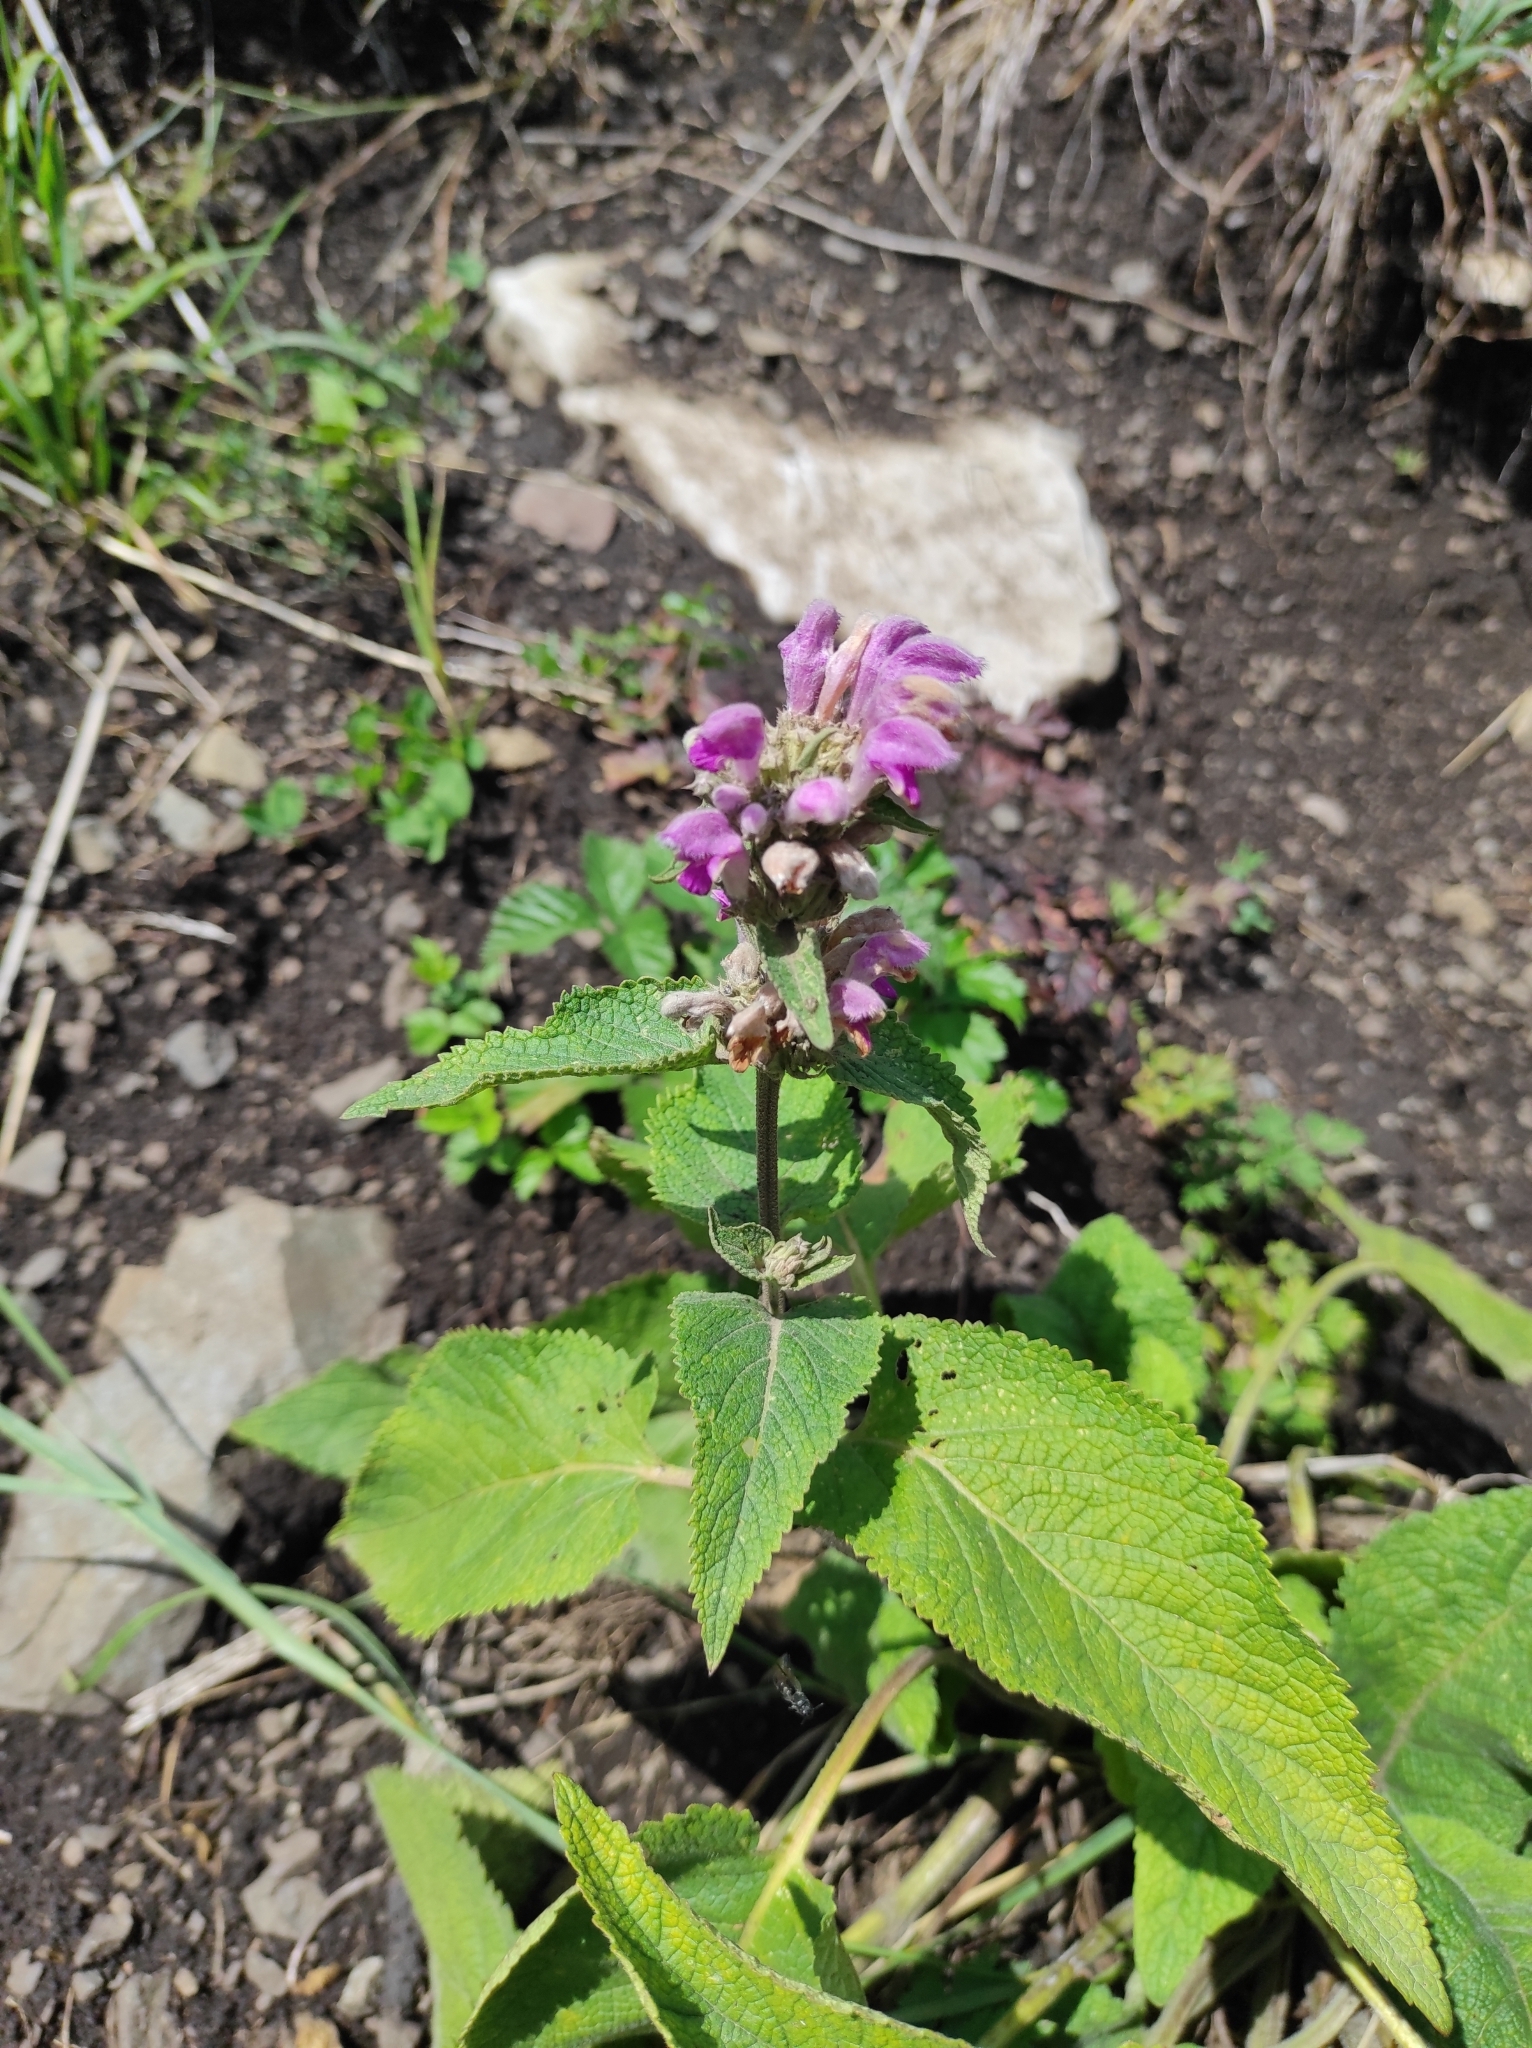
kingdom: Plantae
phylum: Tracheophyta
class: Magnoliopsida
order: Lamiales
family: Lamiaceae
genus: Phlomoides
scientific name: Phlomoides pratensis
